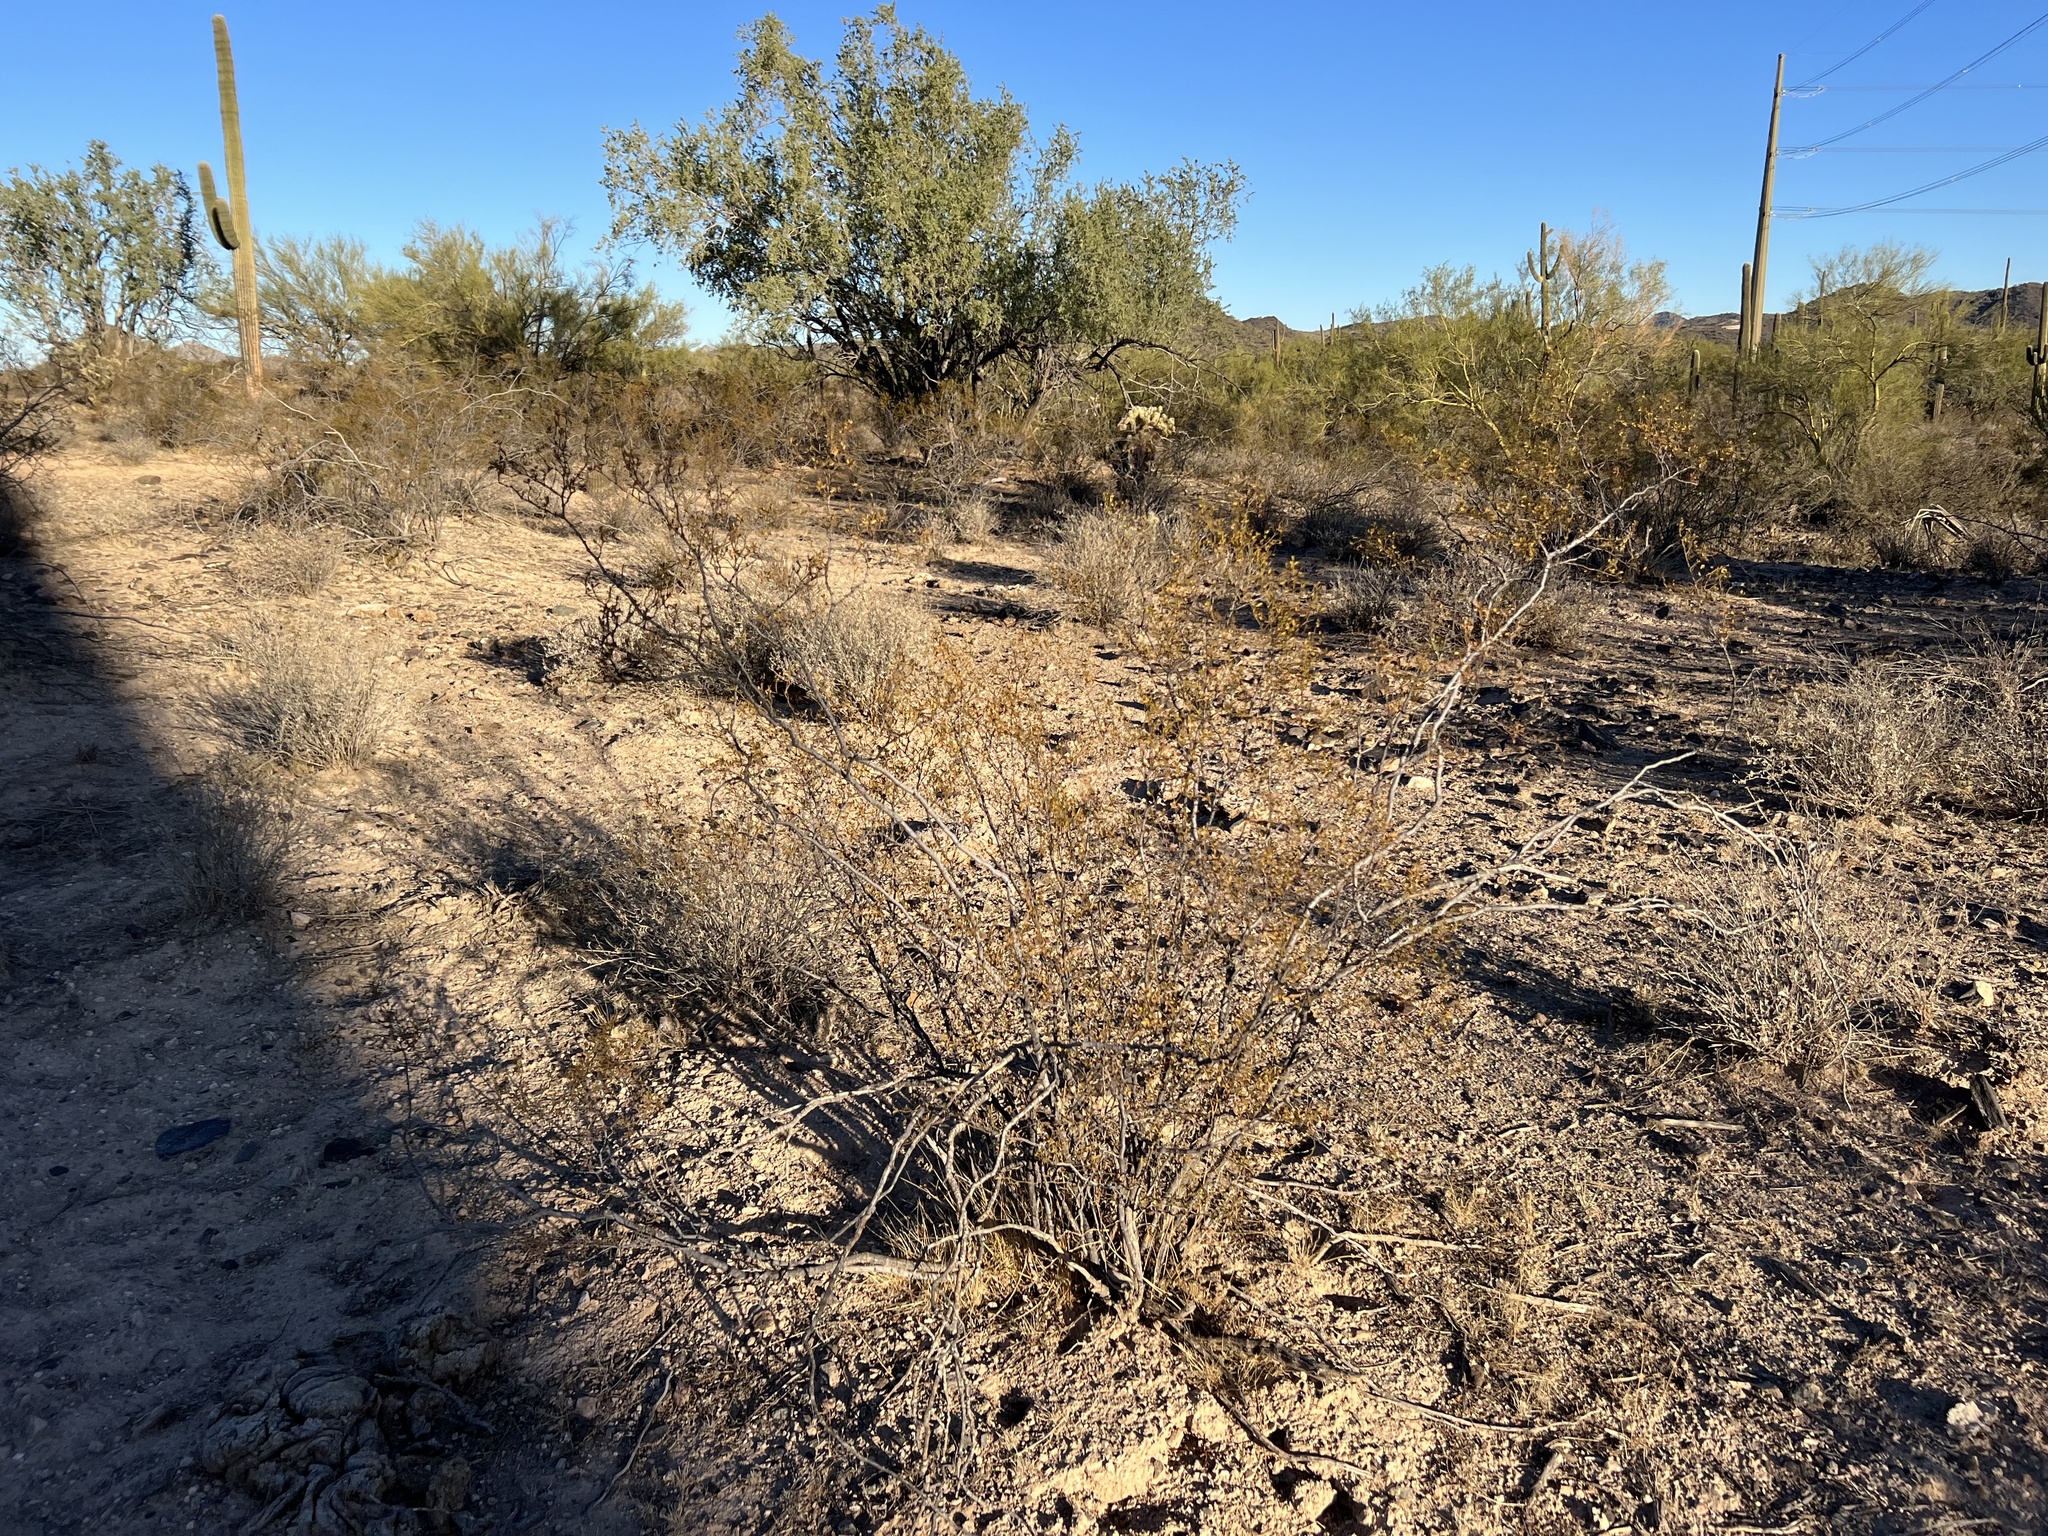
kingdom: Plantae
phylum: Tracheophyta
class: Magnoliopsida
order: Zygophyllales
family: Zygophyllaceae
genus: Larrea
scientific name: Larrea tridentata
